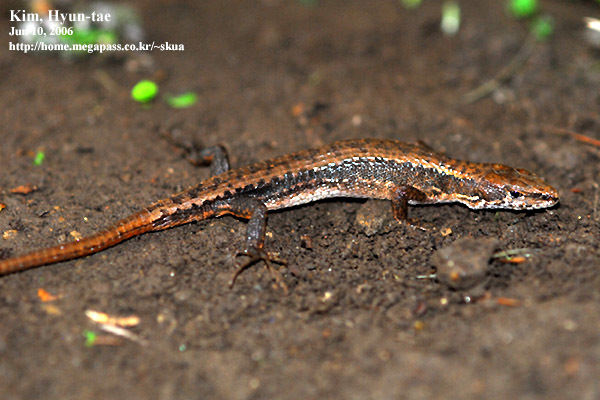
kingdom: Animalia
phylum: Chordata
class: Squamata
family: Lacertidae
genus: Takydromus
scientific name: Takydromus amurensis
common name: Amur grass lizard
